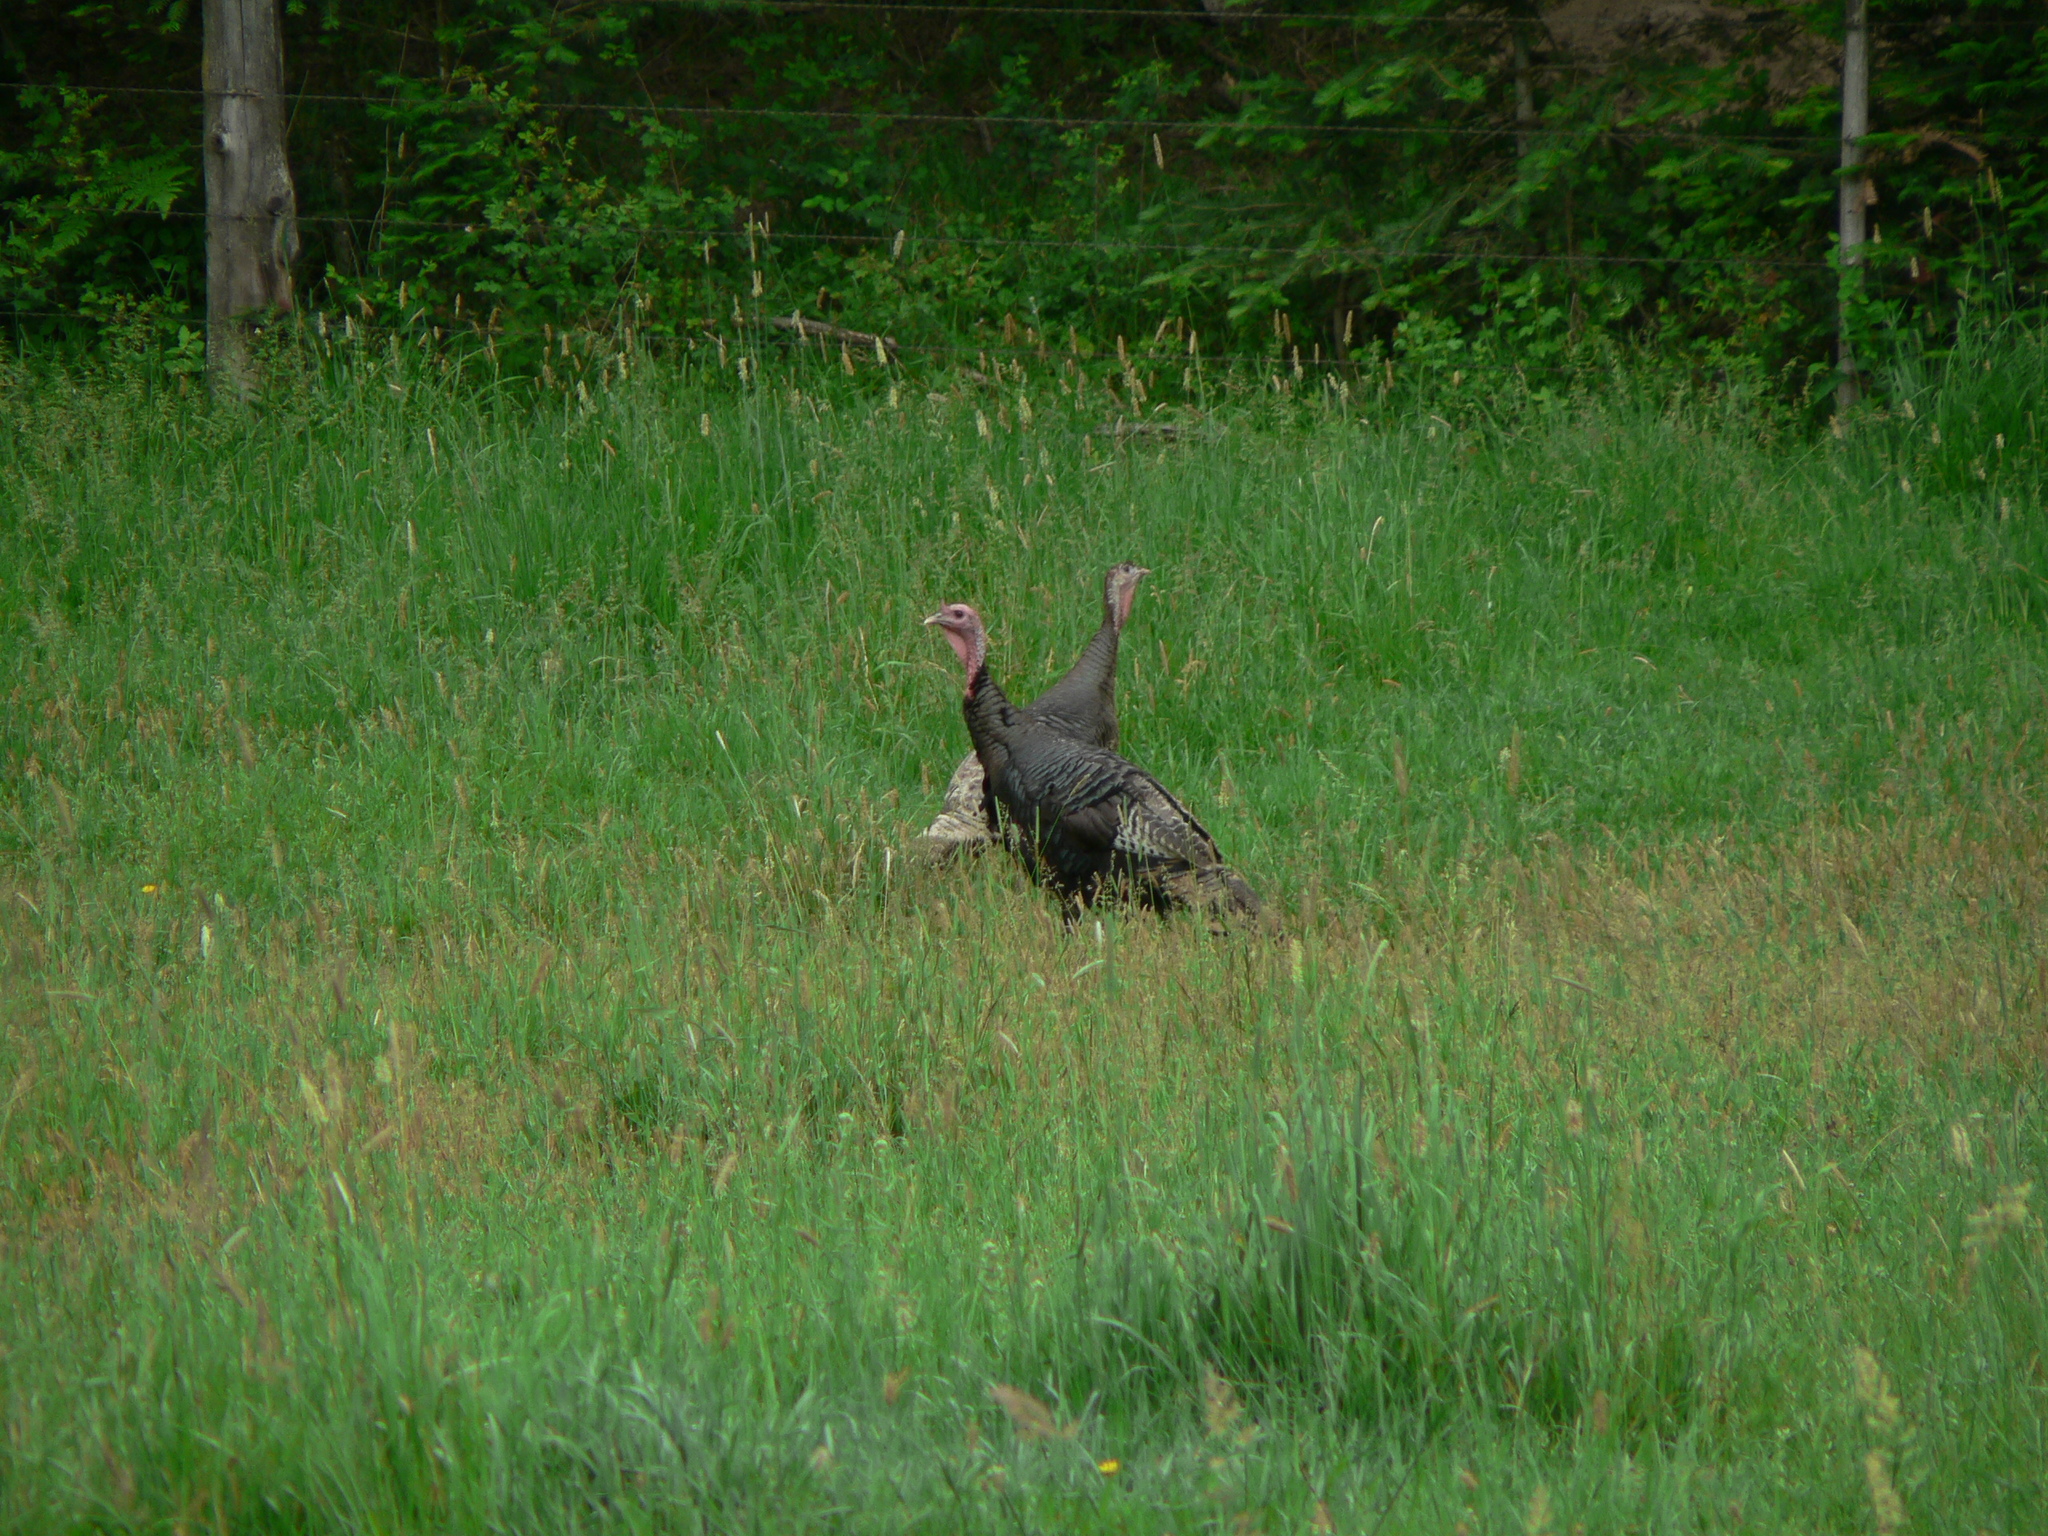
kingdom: Animalia
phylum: Chordata
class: Aves
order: Galliformes
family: Phasianidae
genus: Meleagris
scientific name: Meleagris gallopavo
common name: Wild turkey
